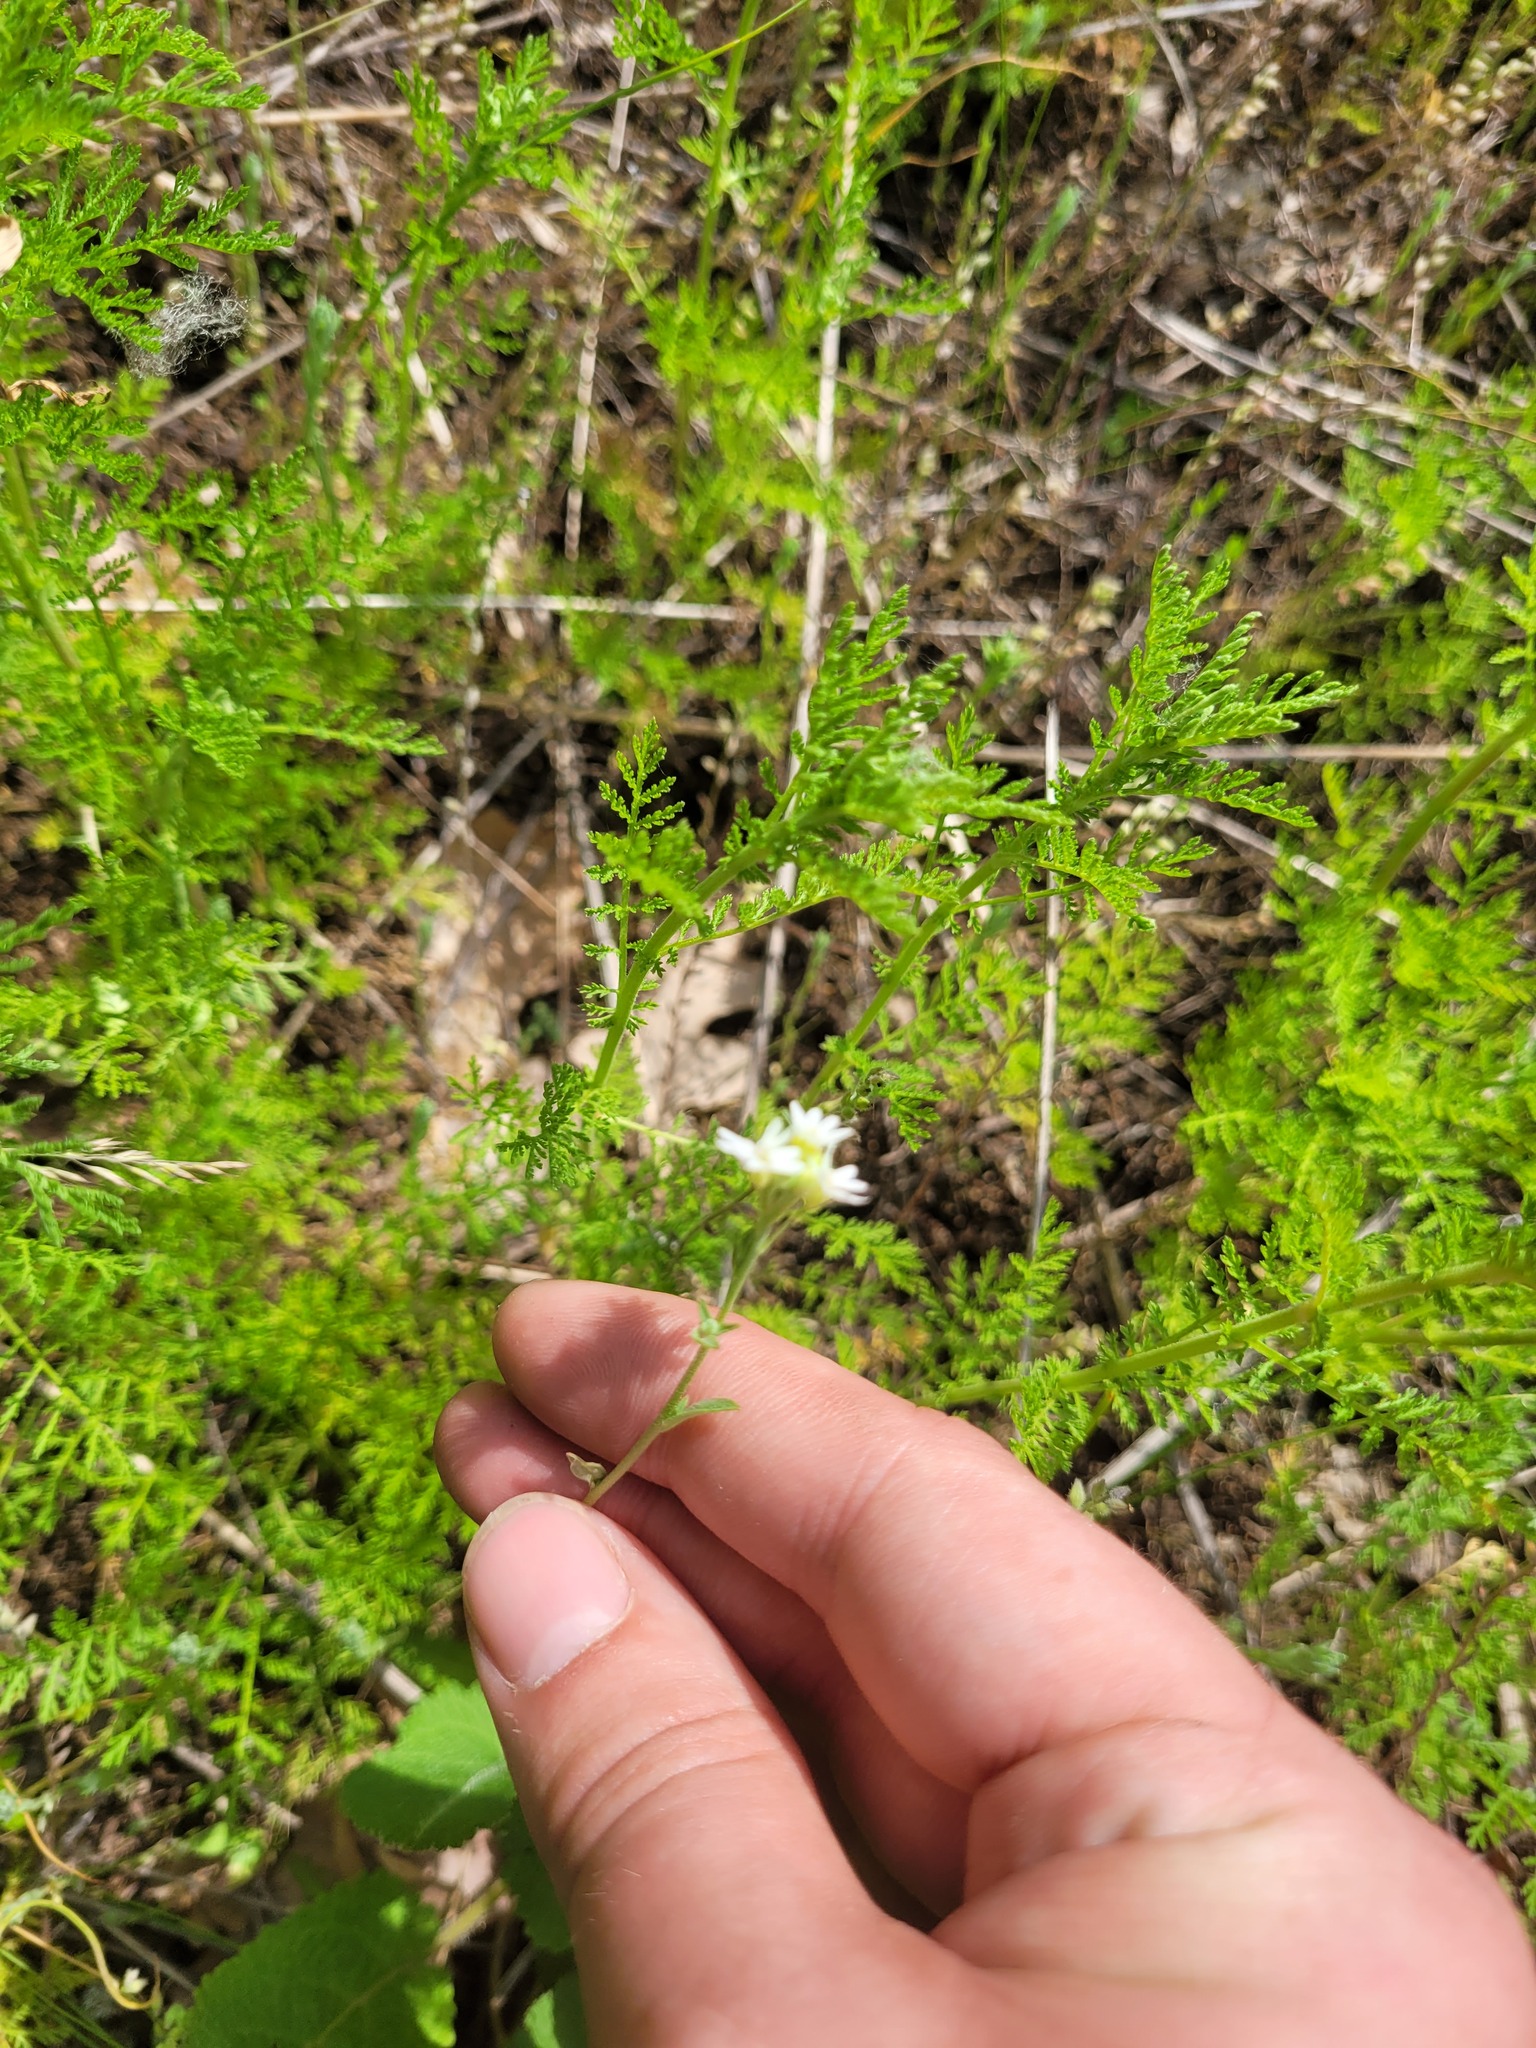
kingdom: Plantae
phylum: Tracheophyta
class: Magnoliopsida
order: Brassicales
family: Brassicaceae
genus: Berteroa
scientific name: Berteroa incana
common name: Hoary alison
